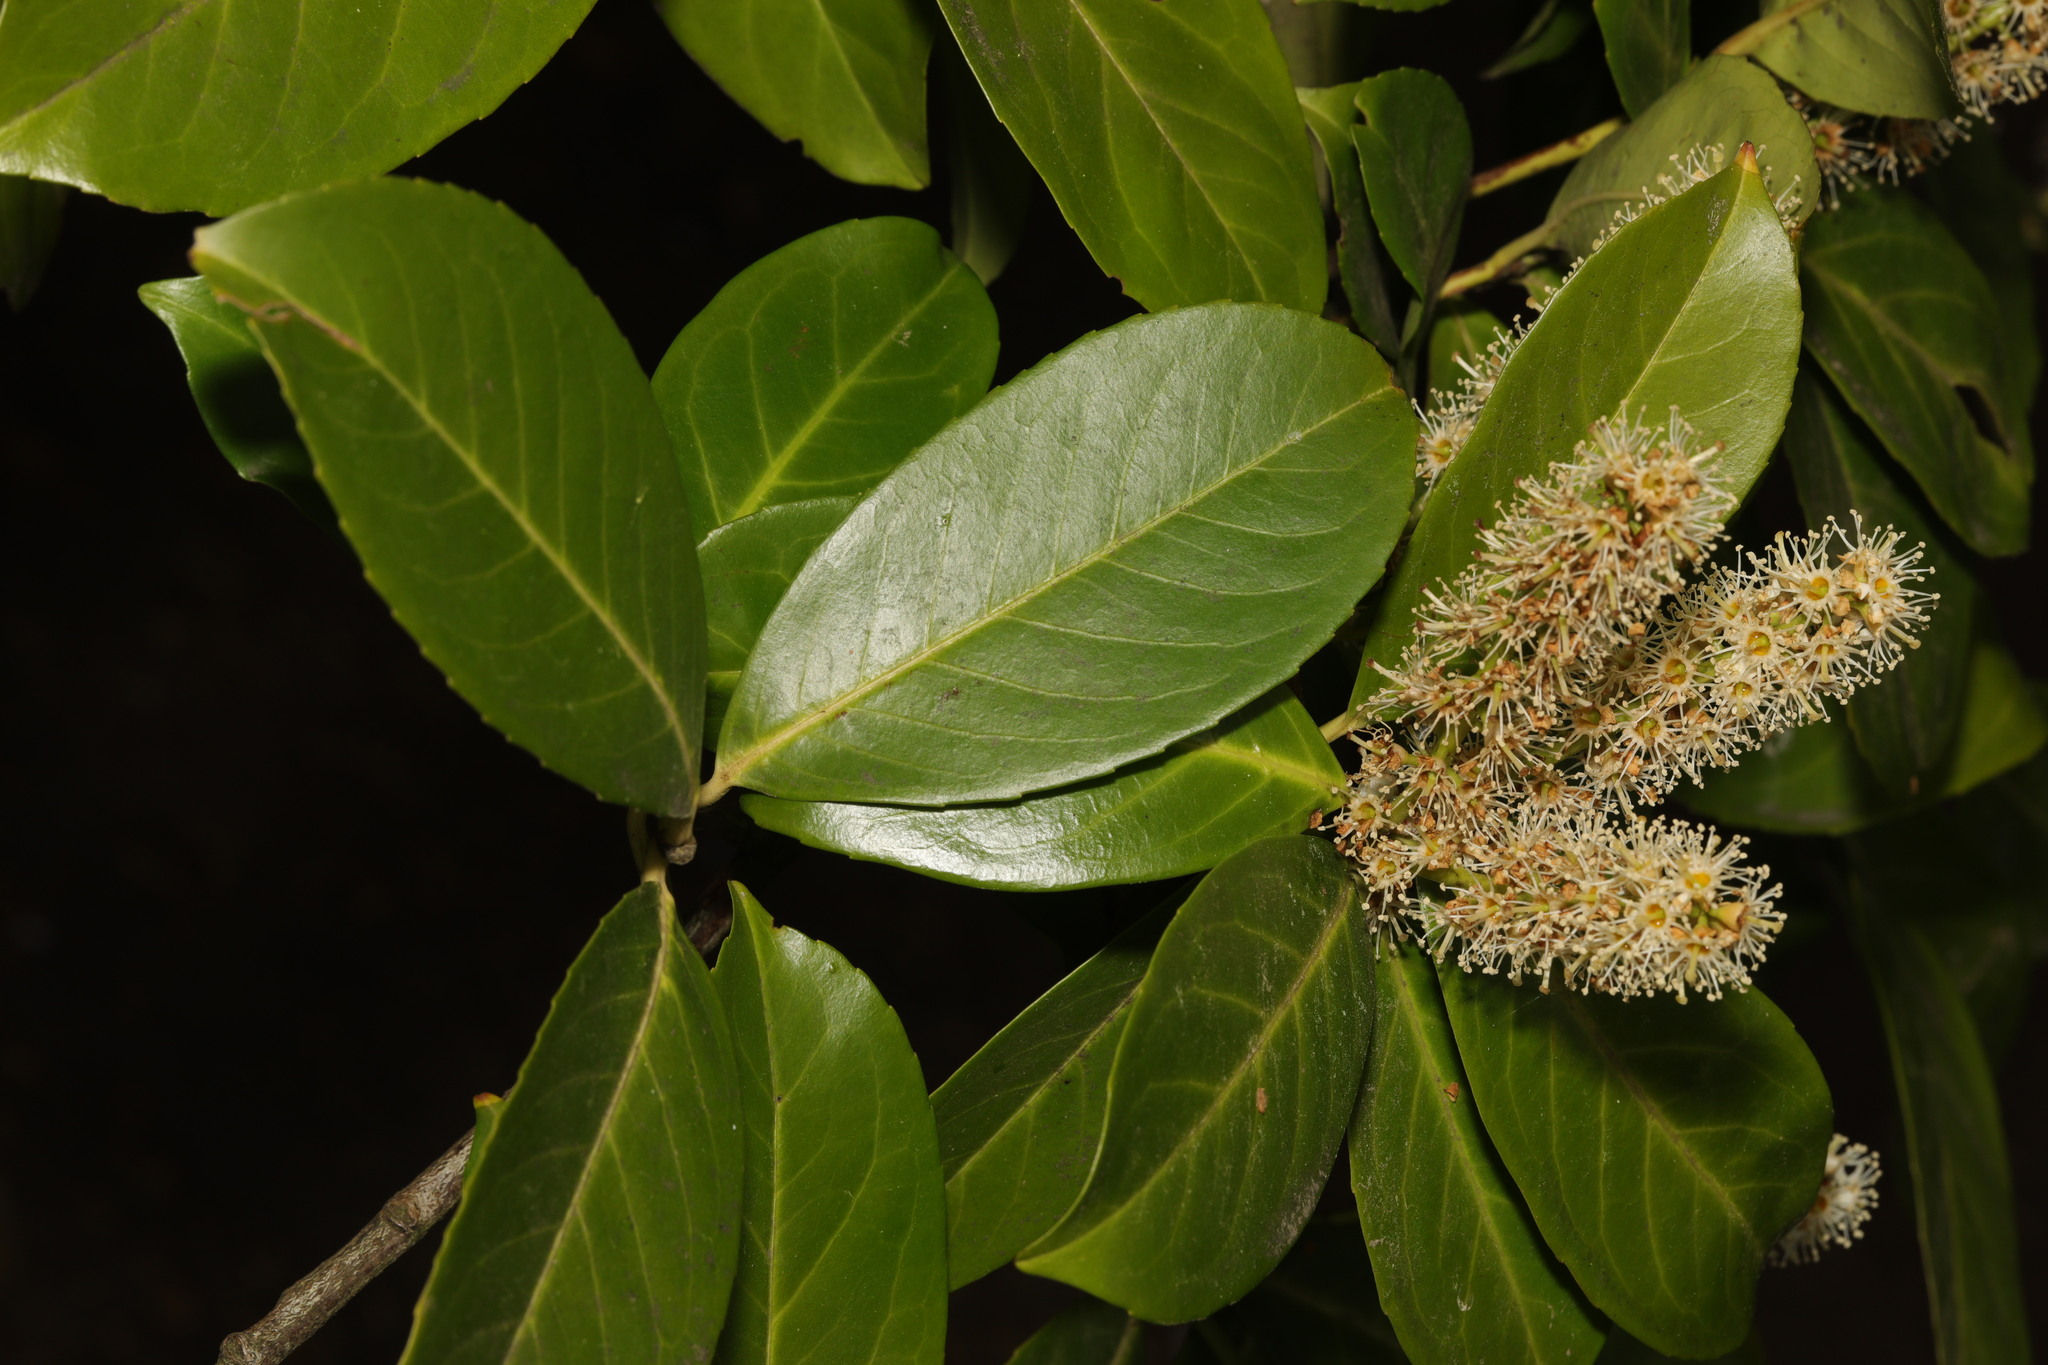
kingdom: Plantae
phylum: Tracheophyta
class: Magnoliopsida
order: Rosales
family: Rosaceae
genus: Prunus
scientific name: Prunus laurocerasus
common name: Cherry laurel
